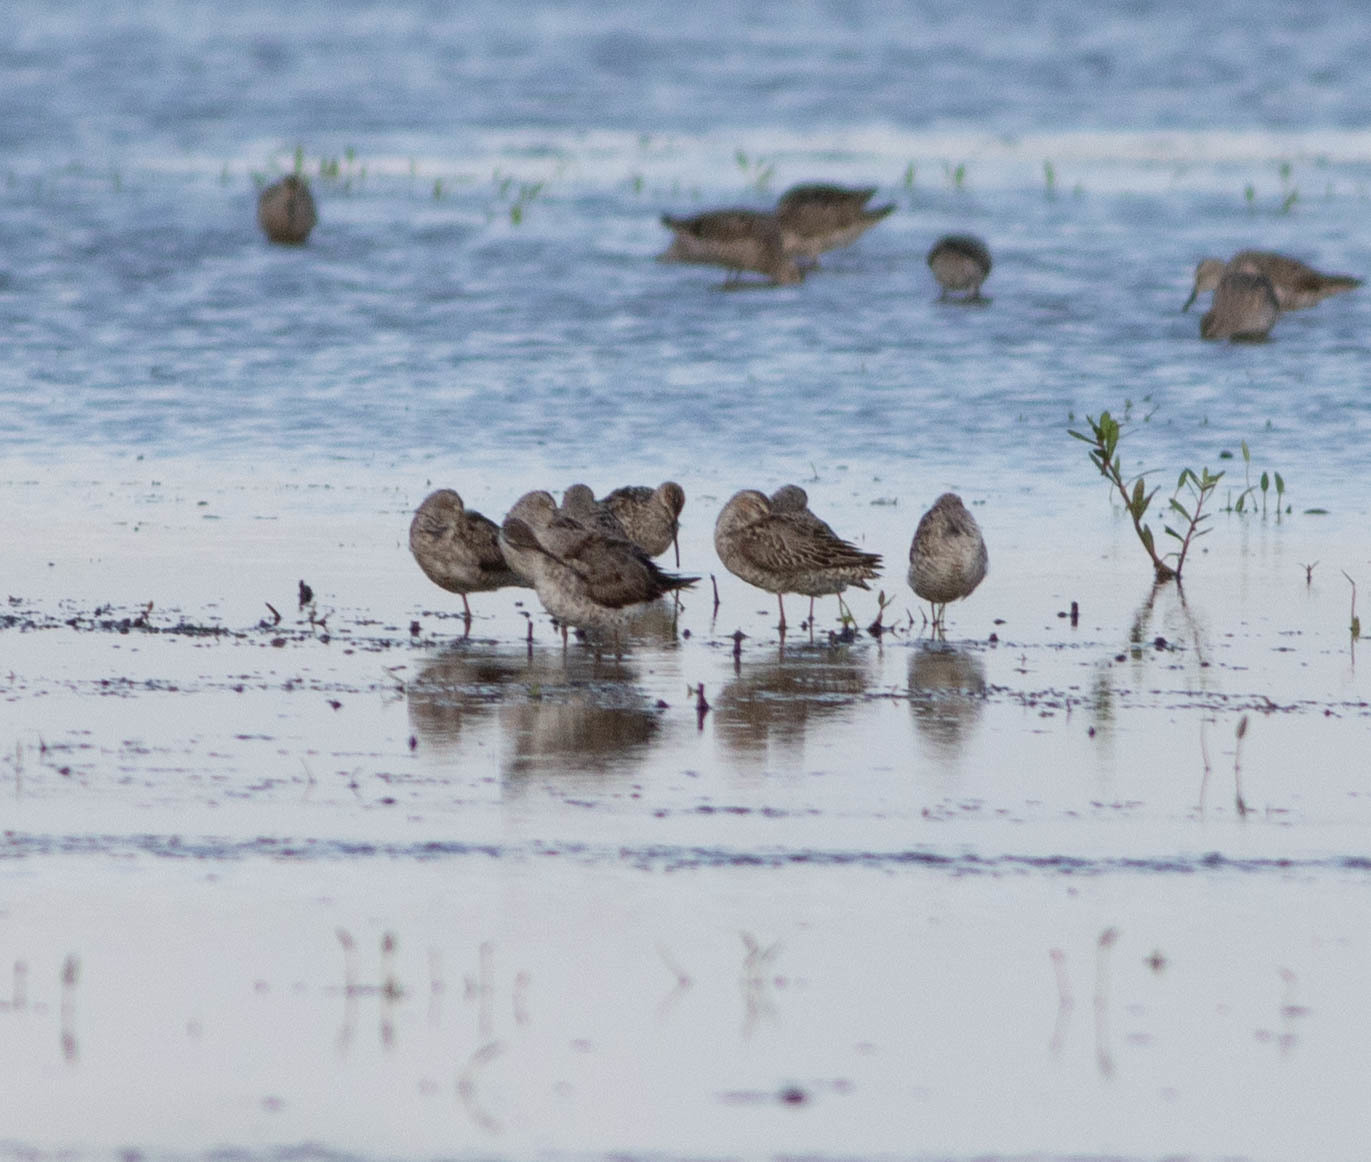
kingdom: Animalia
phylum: Chordata
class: Aves
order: Charadriiformes
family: Scolopacidae
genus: Calidris
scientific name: Calidris himantopus
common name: Stilt sandpiper
